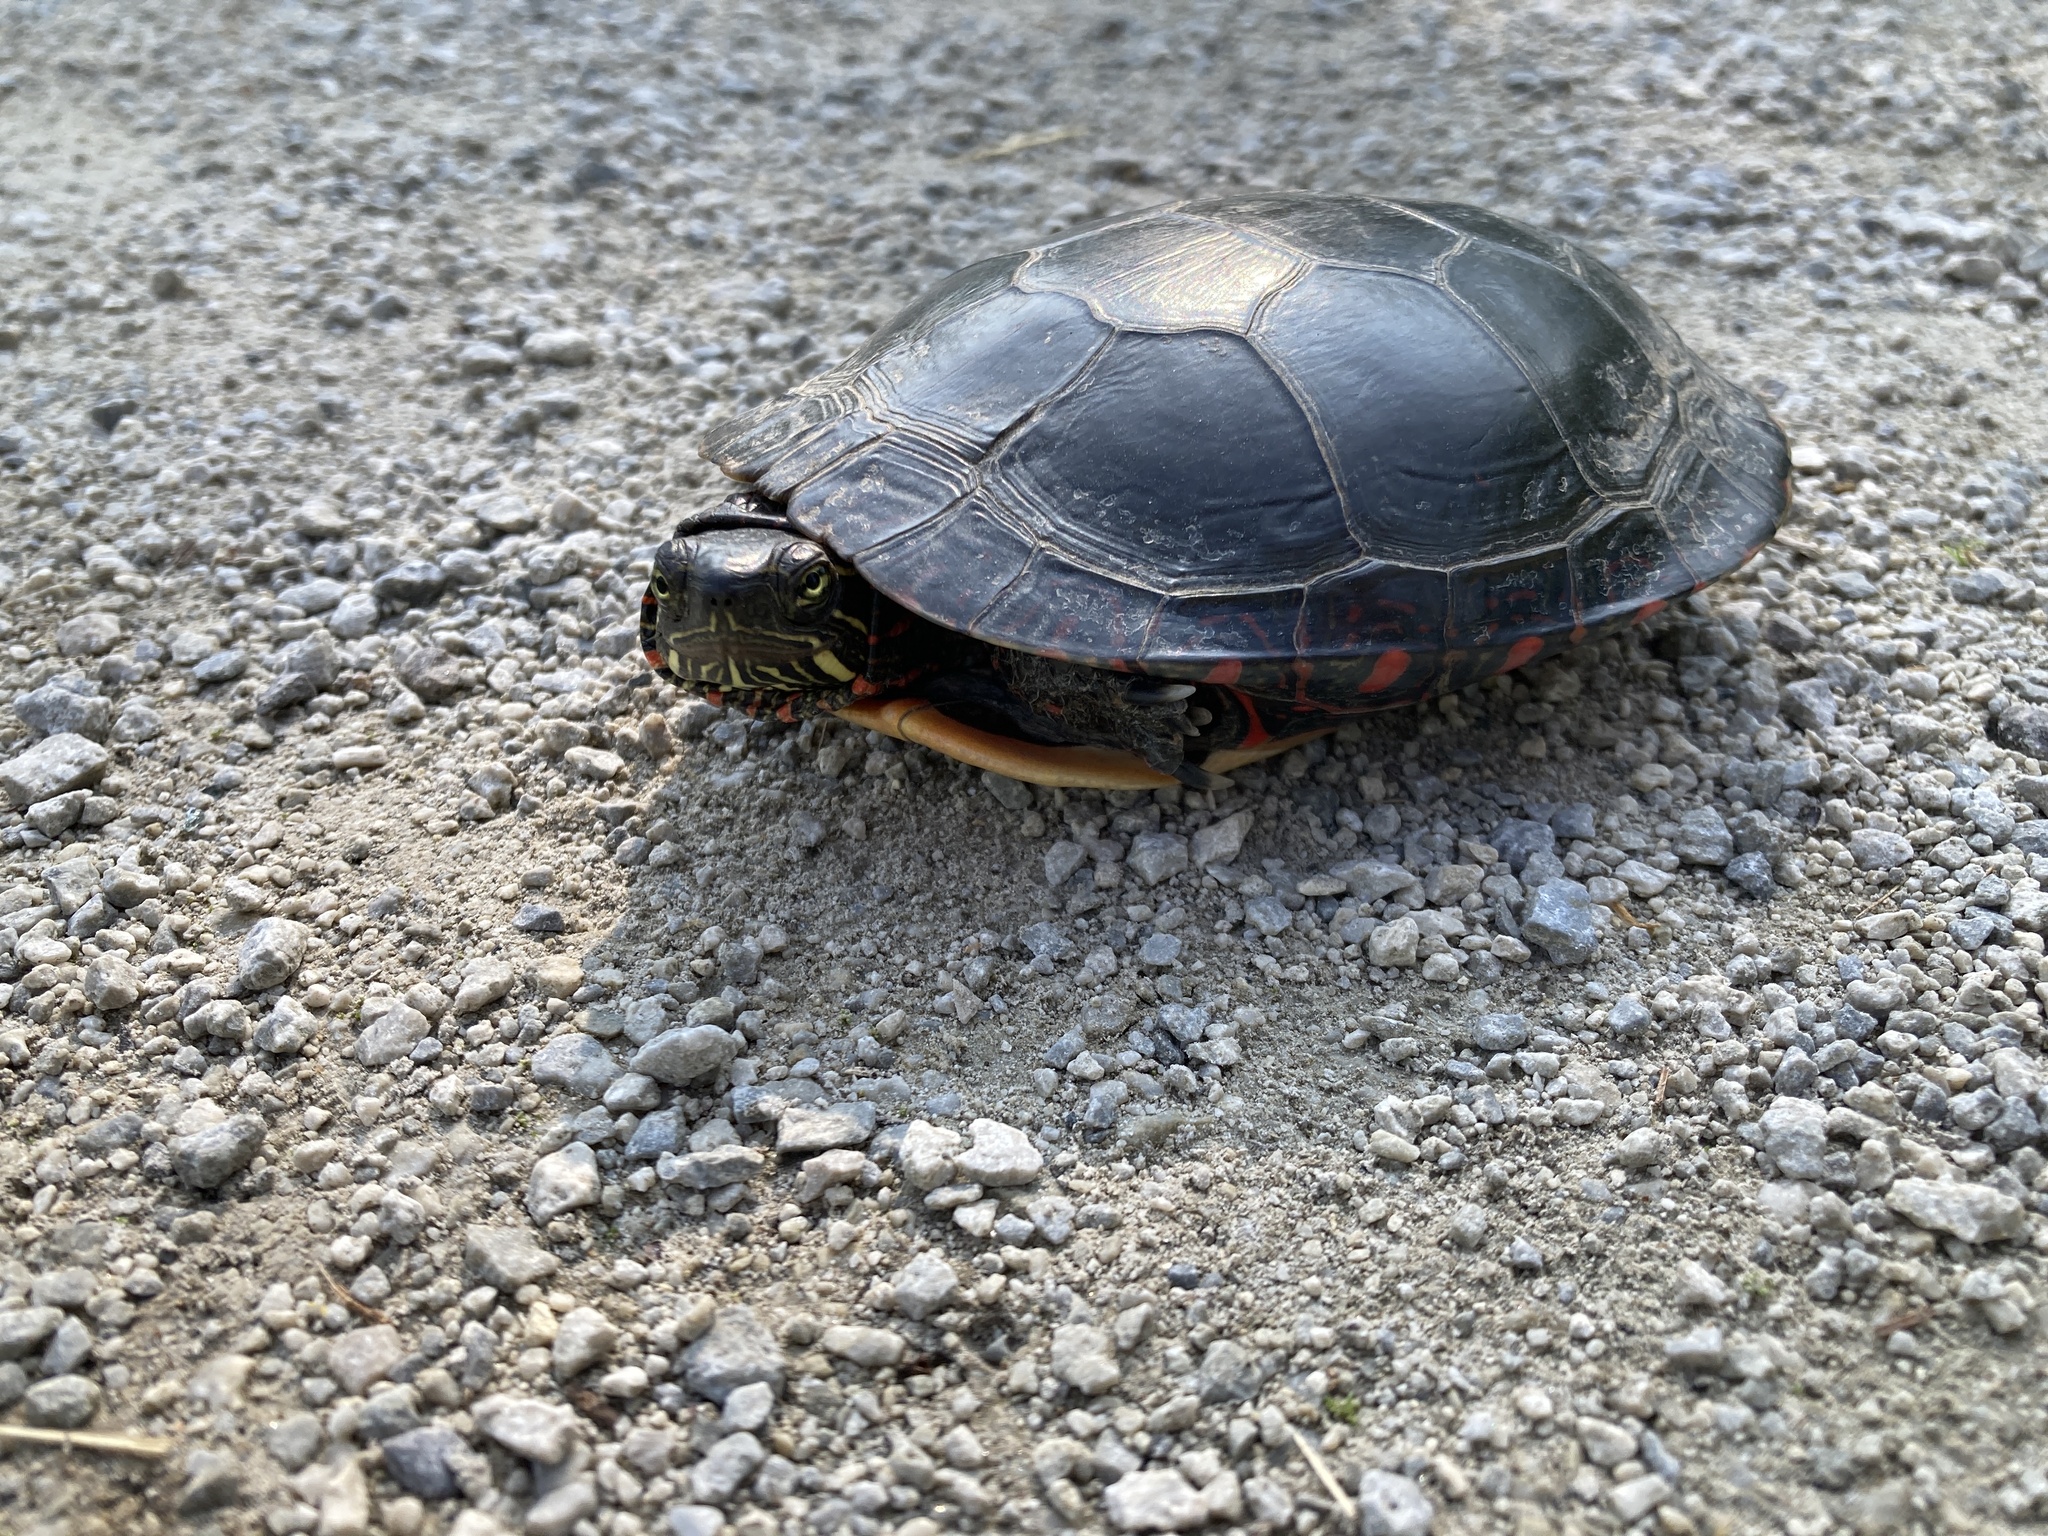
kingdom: Animalia
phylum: Chordata
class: Testudines
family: Emydidae
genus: Chrysemys
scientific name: Chrysemys picta
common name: Painted turtle
